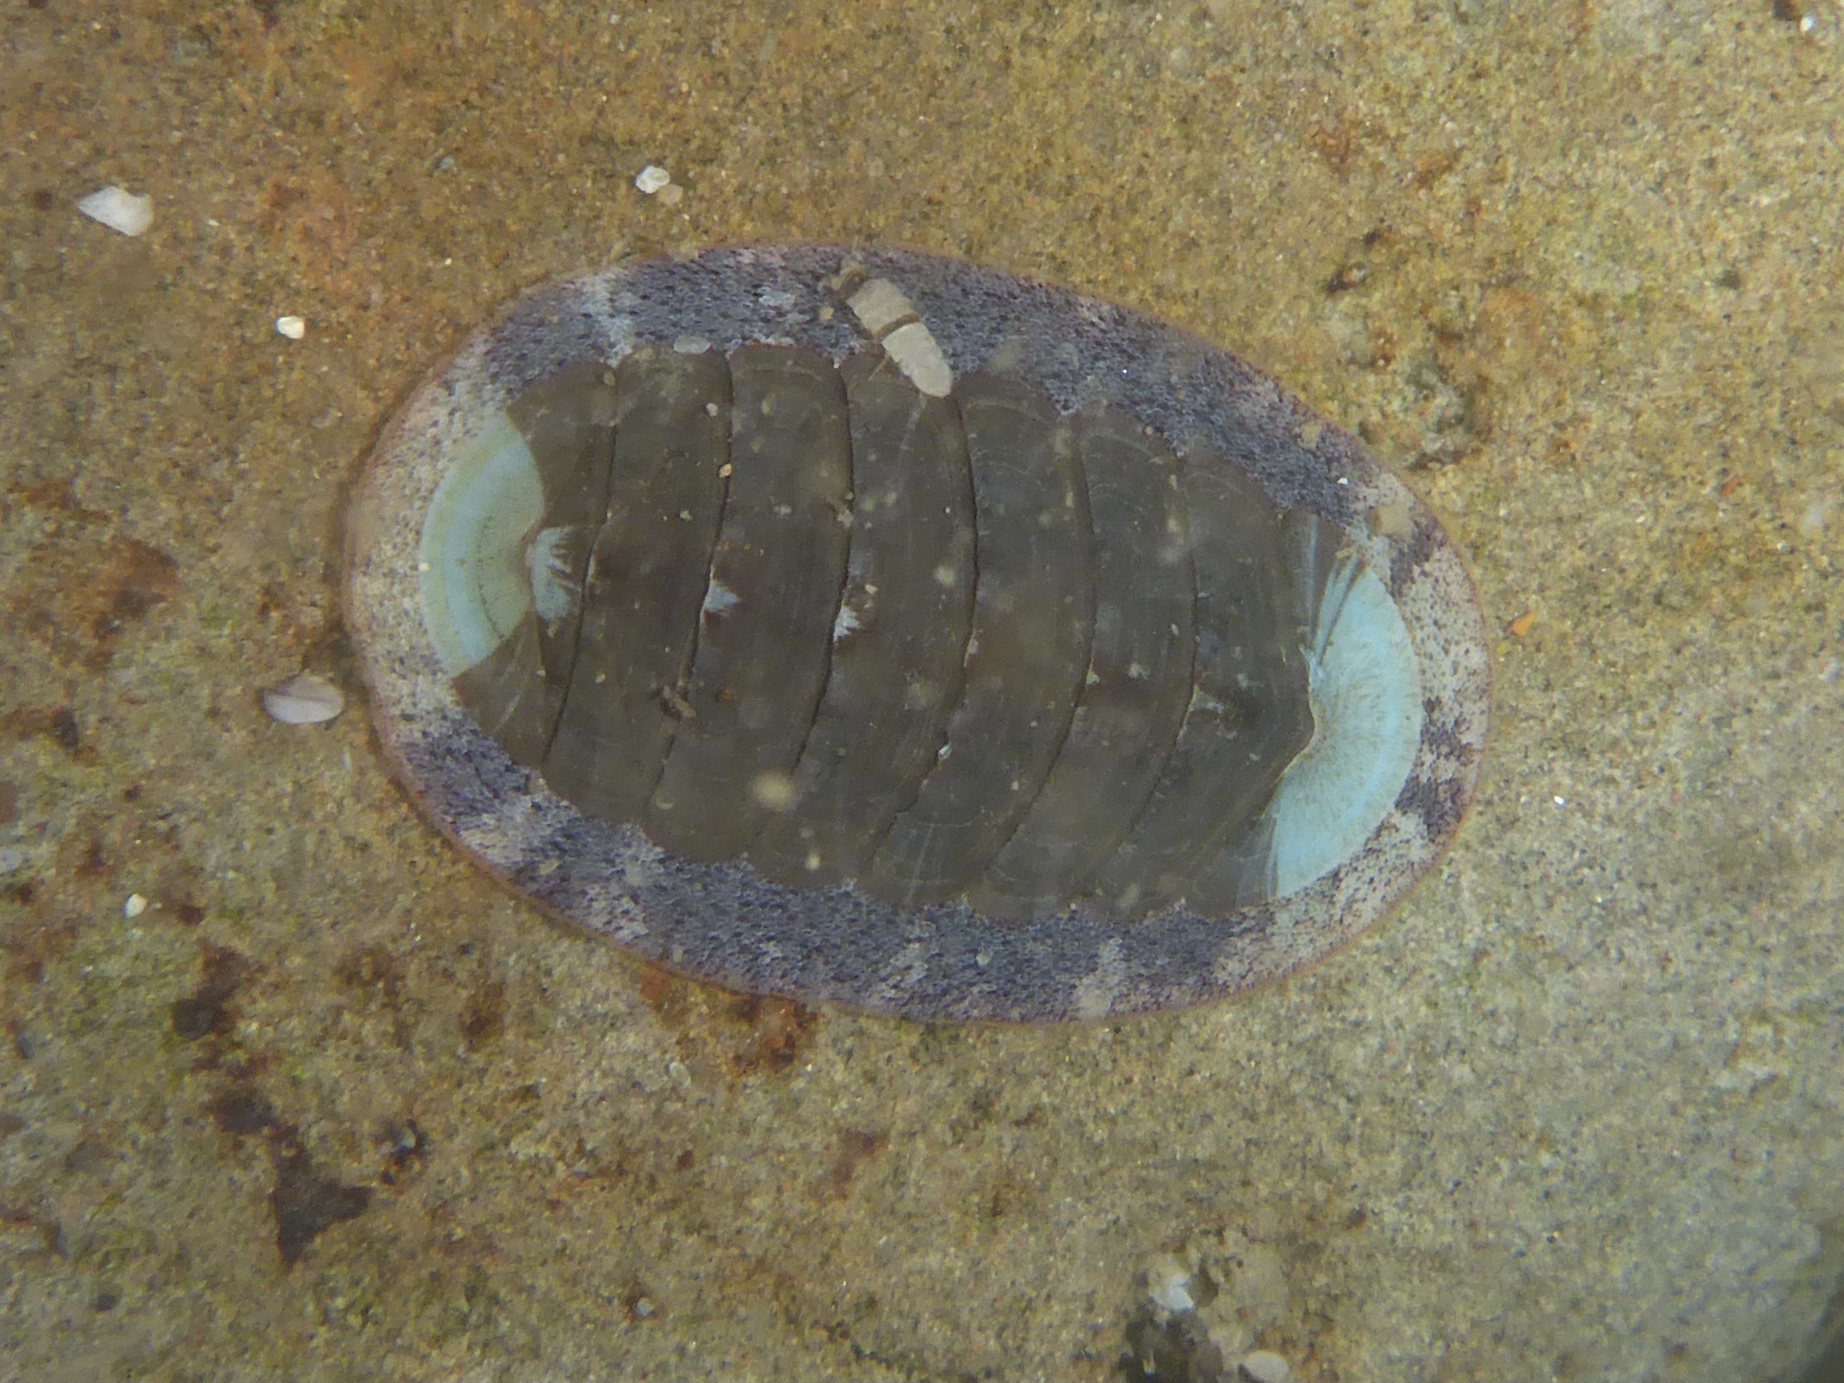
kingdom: Animalia
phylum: Mollusca
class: Polyplacophora
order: Chitonida
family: Ischnochitonidae
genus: Lepidozona
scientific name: Lepidozona radians
